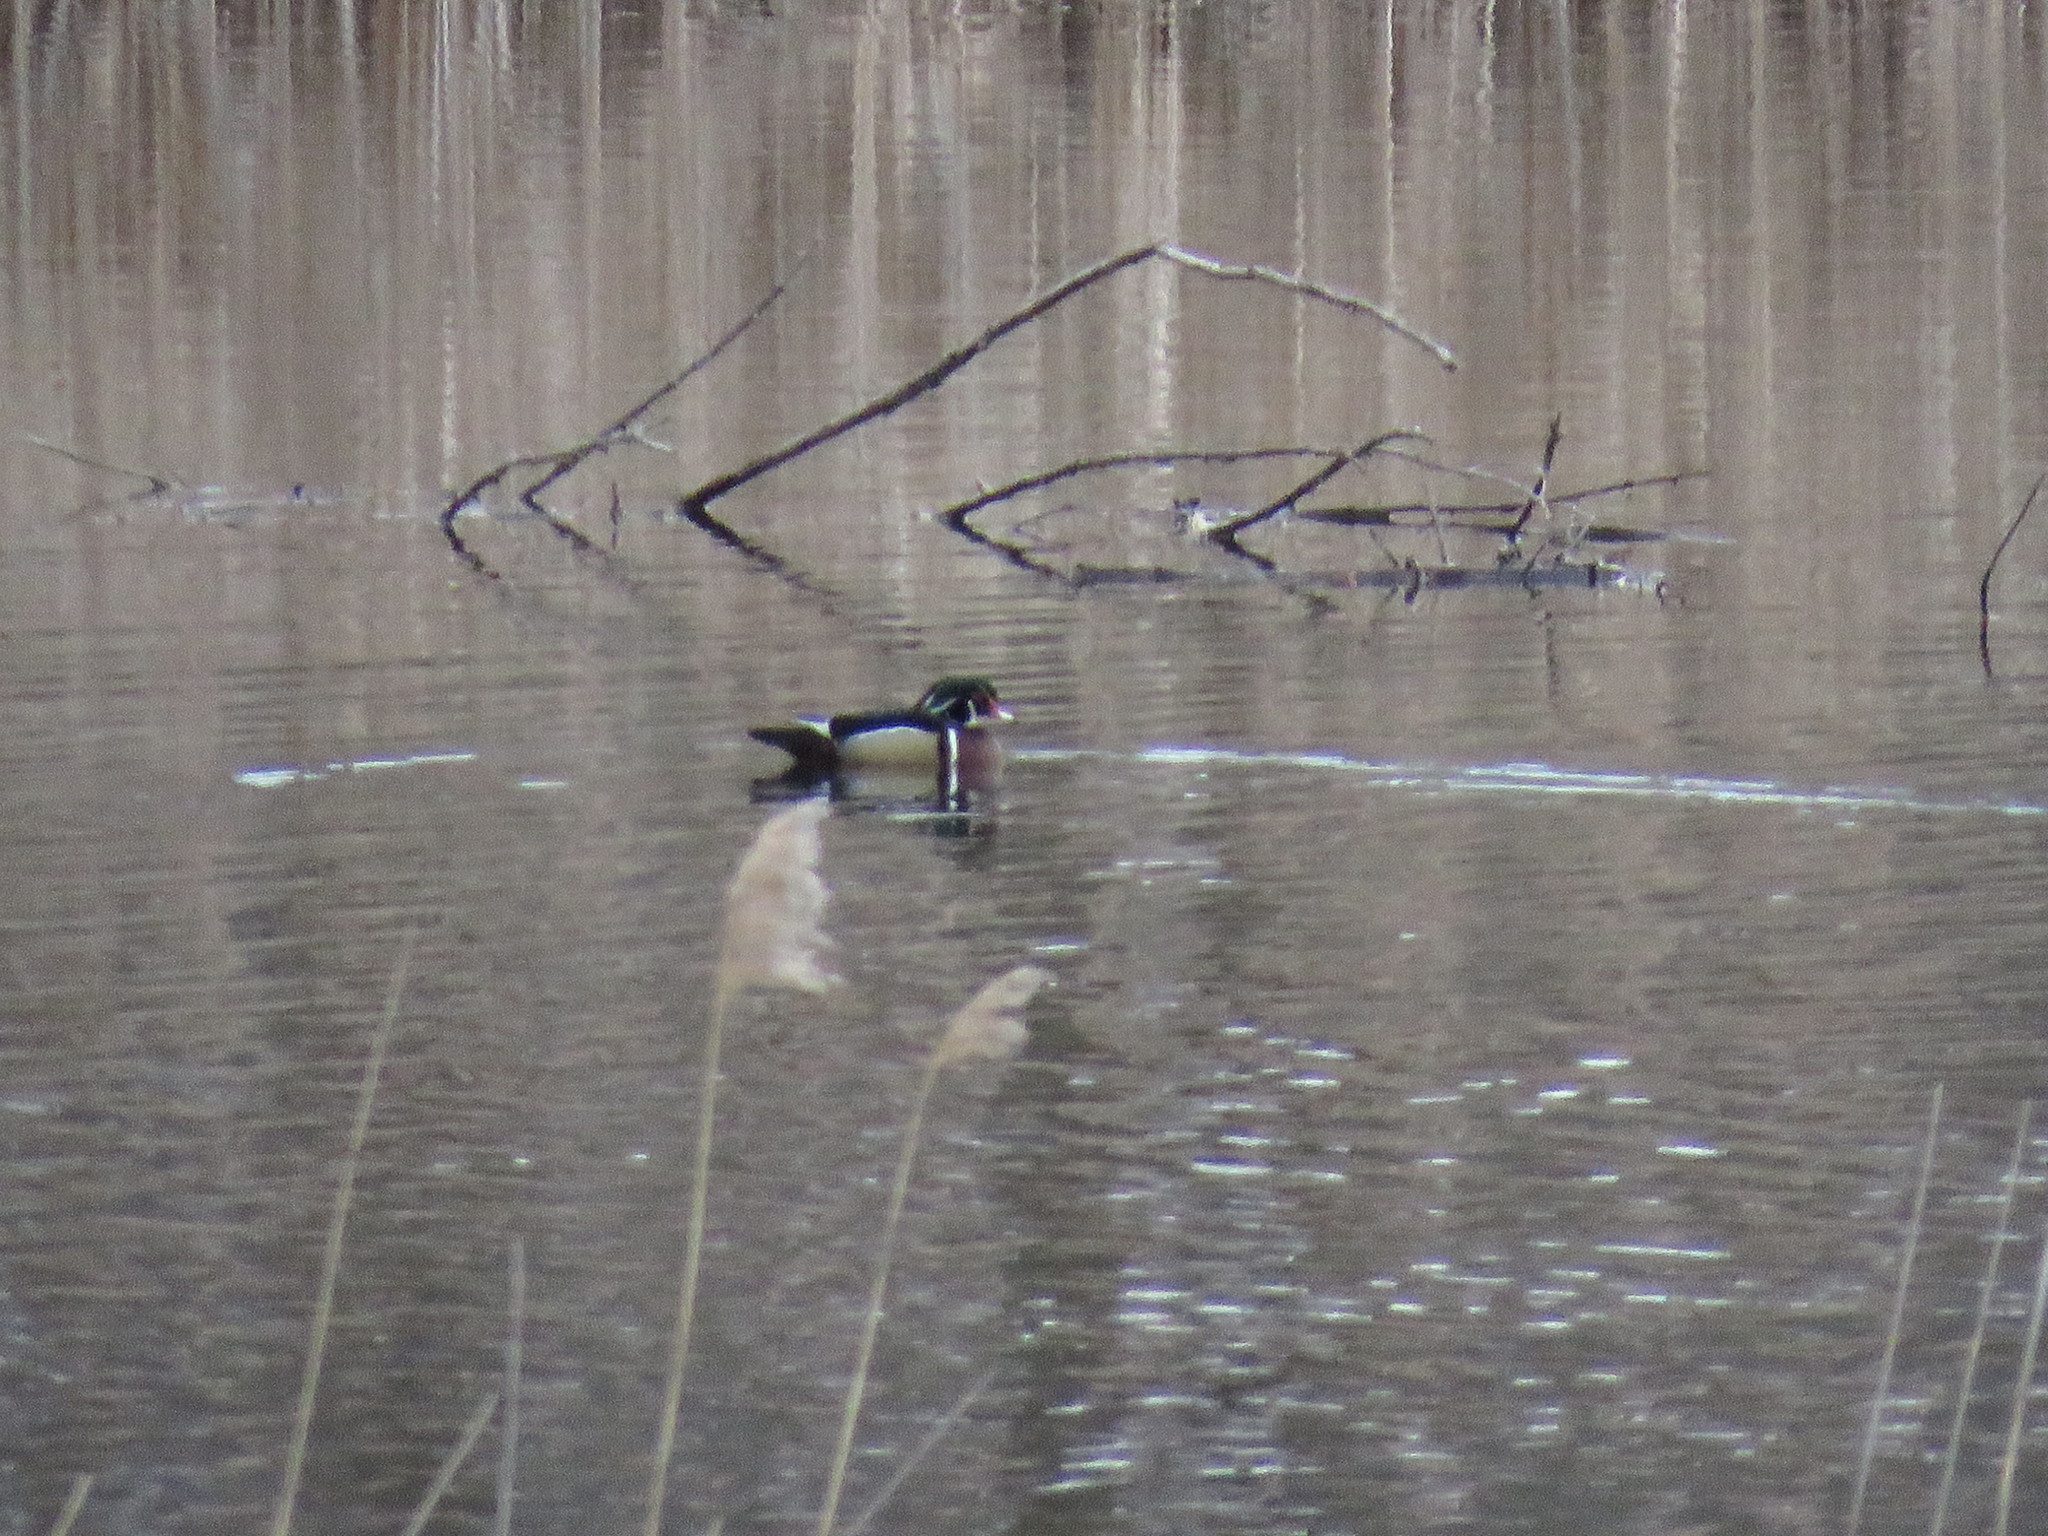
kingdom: Animalia
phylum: Chordata
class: Aves
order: Anseriformes
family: Anatidae
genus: Aix
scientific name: Aix sponsa
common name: Wood duck
